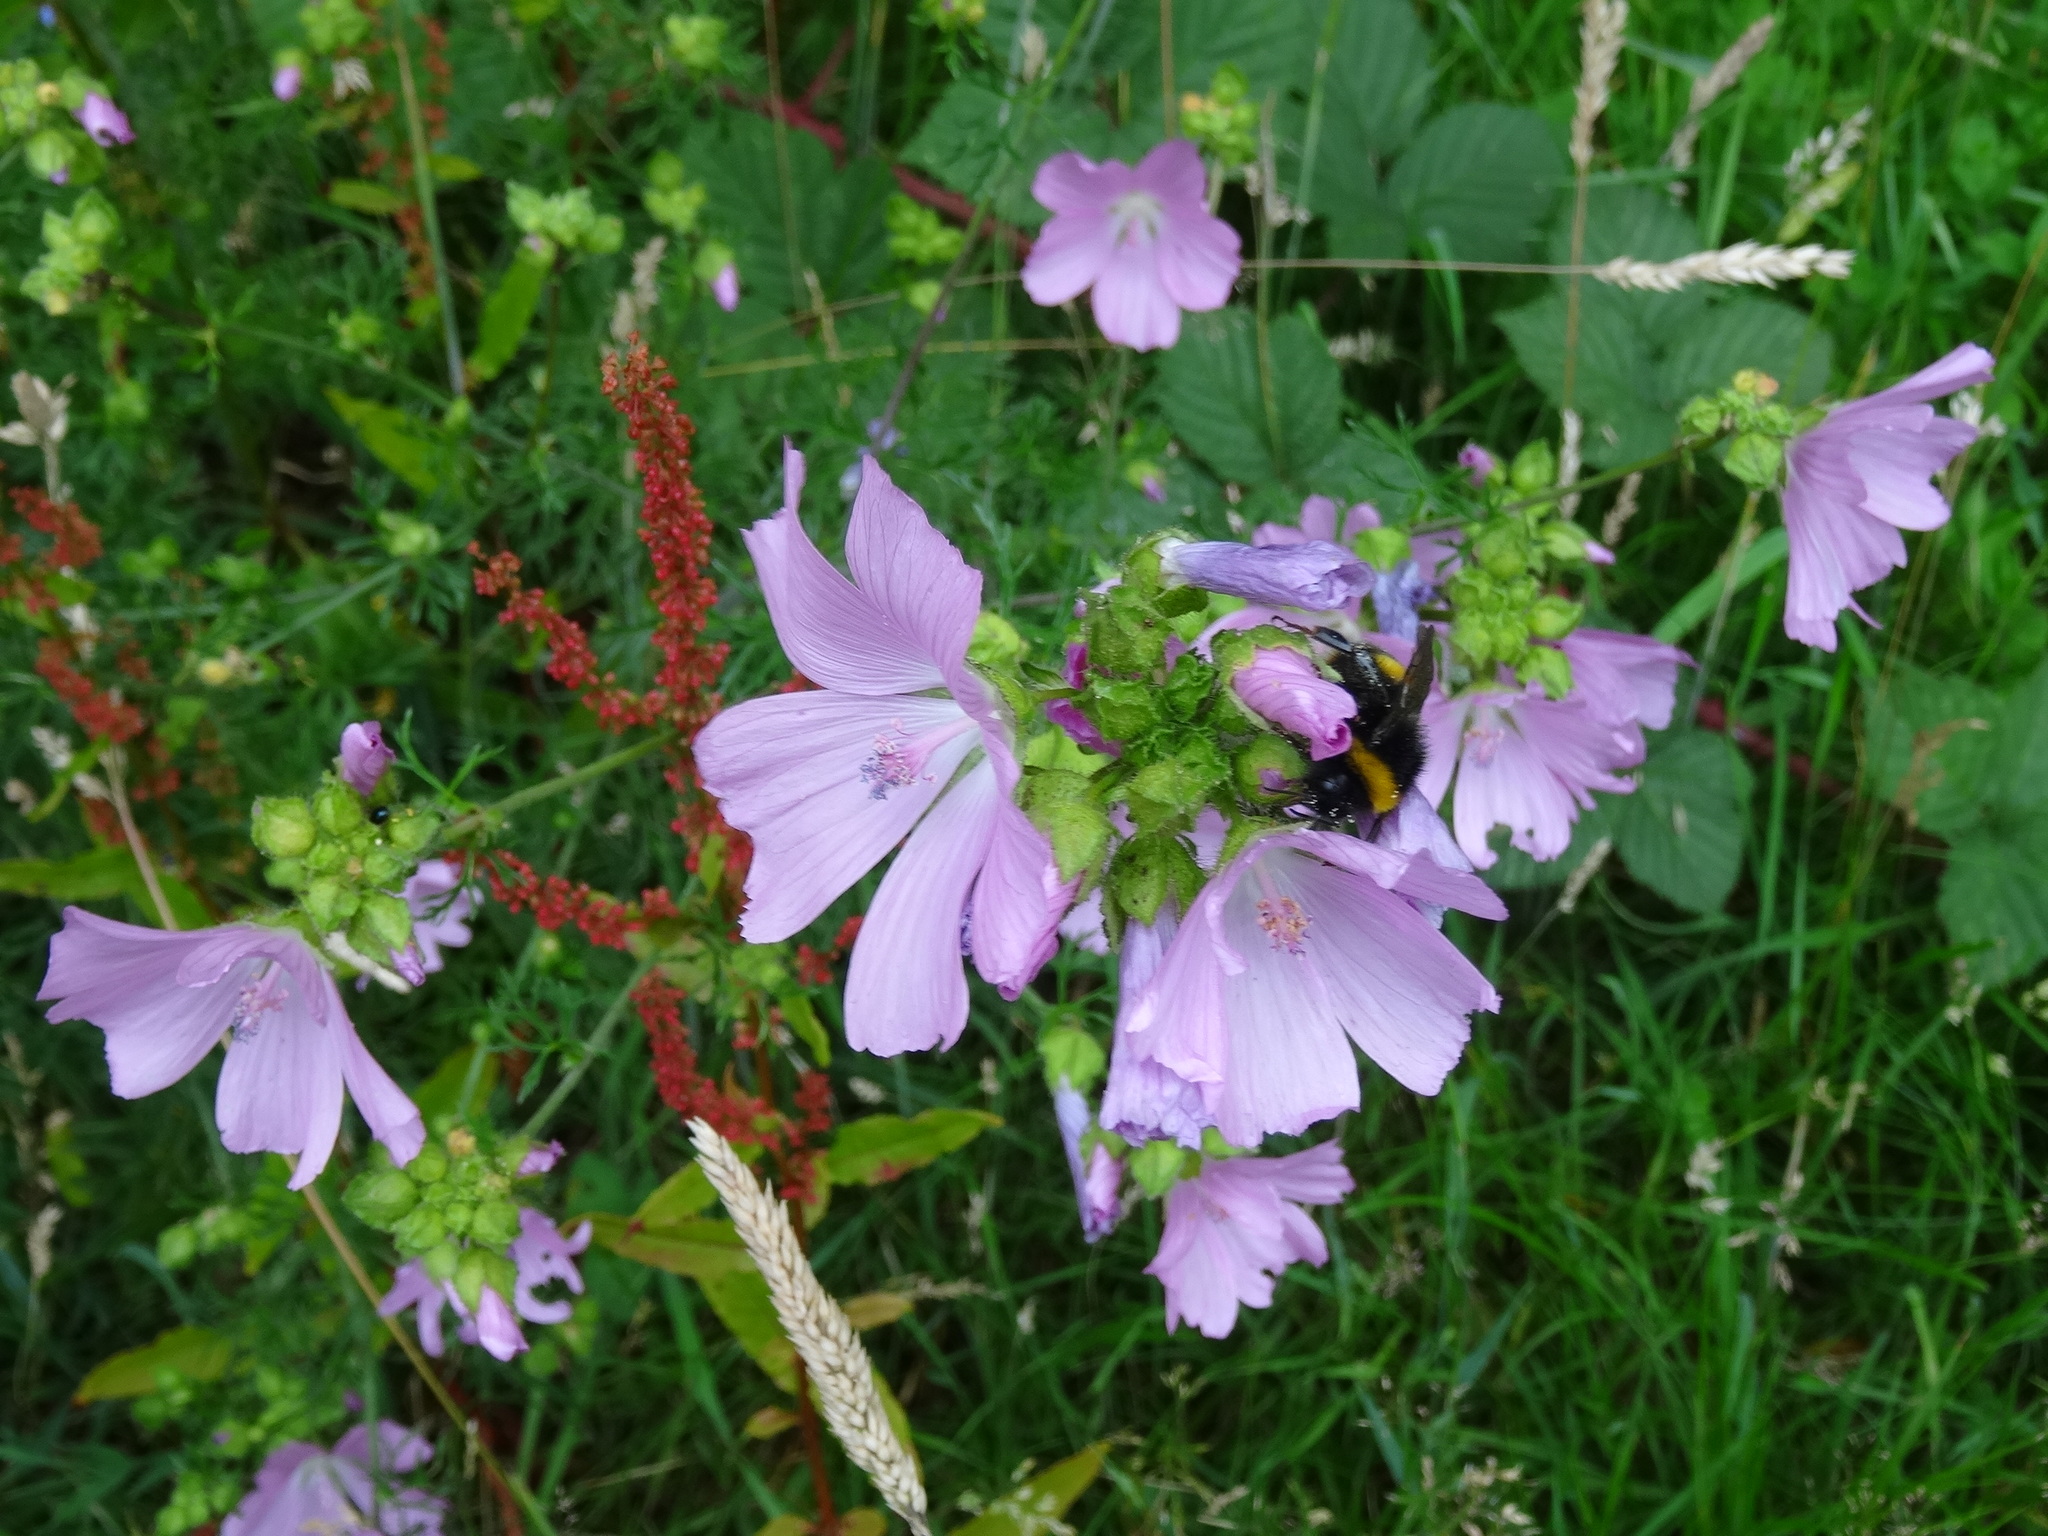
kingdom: Plantae
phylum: Tracheophyta
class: Magnoliopsida
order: Malvales
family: Malvaceae
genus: Malva
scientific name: Malva moschata
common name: Musk mallow
